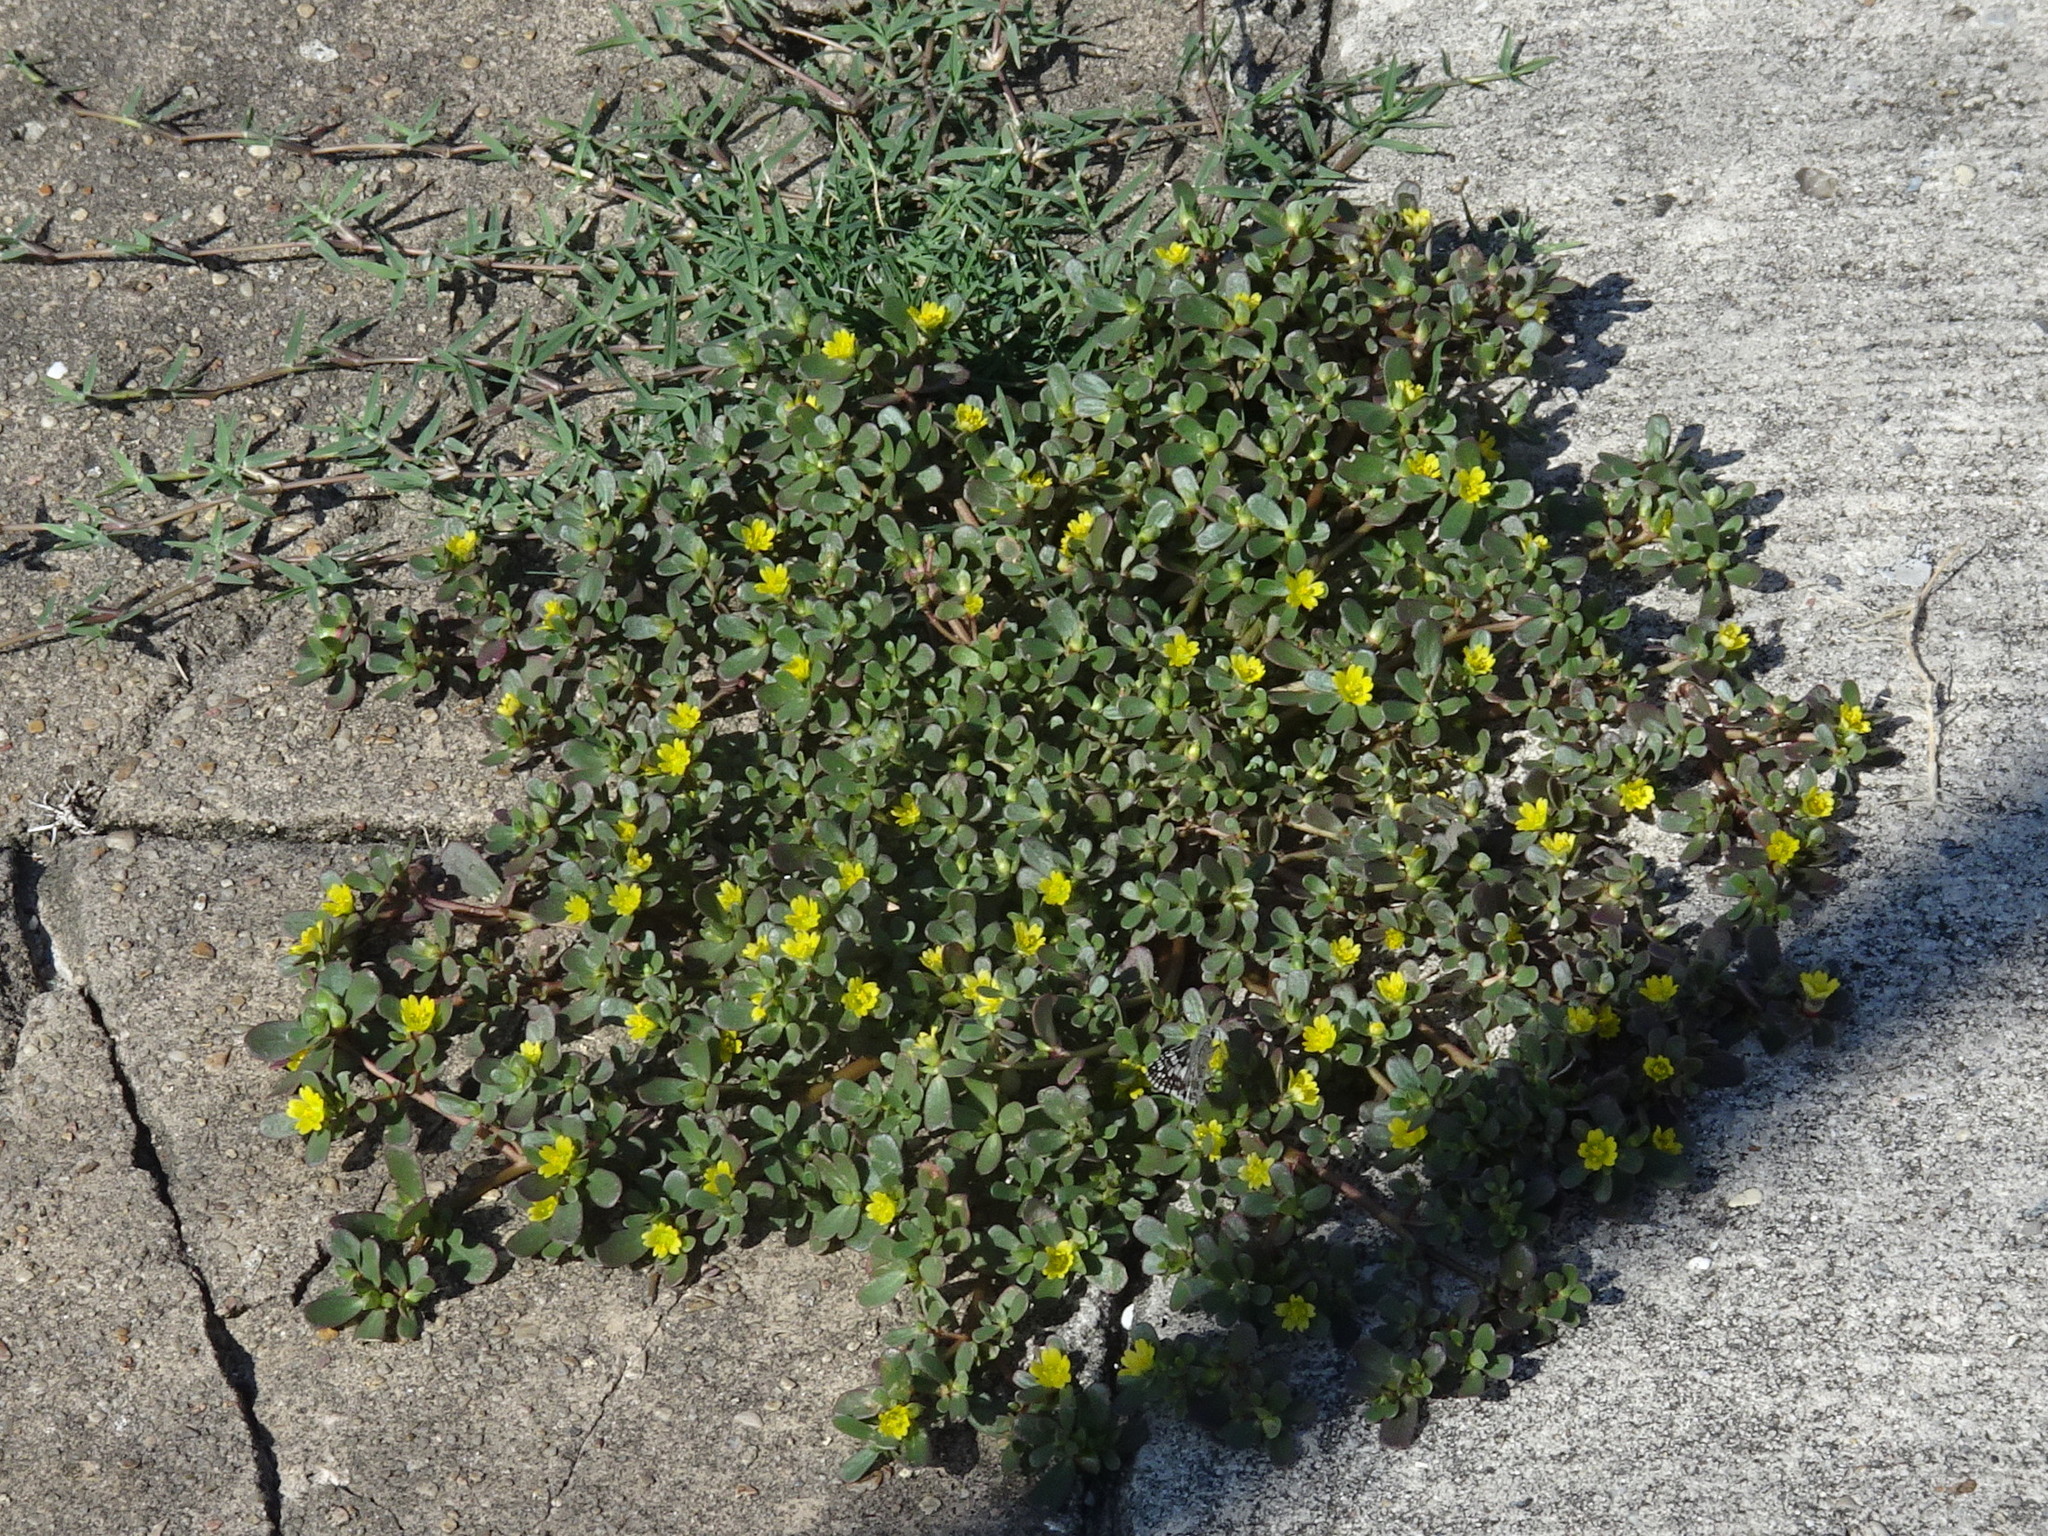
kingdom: Plantae
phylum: Tracheophyta
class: Magnoliopsida
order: Caryophyllales
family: Portulacaceae
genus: Portulaca
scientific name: Portulaca oleracea
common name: Common purslane
